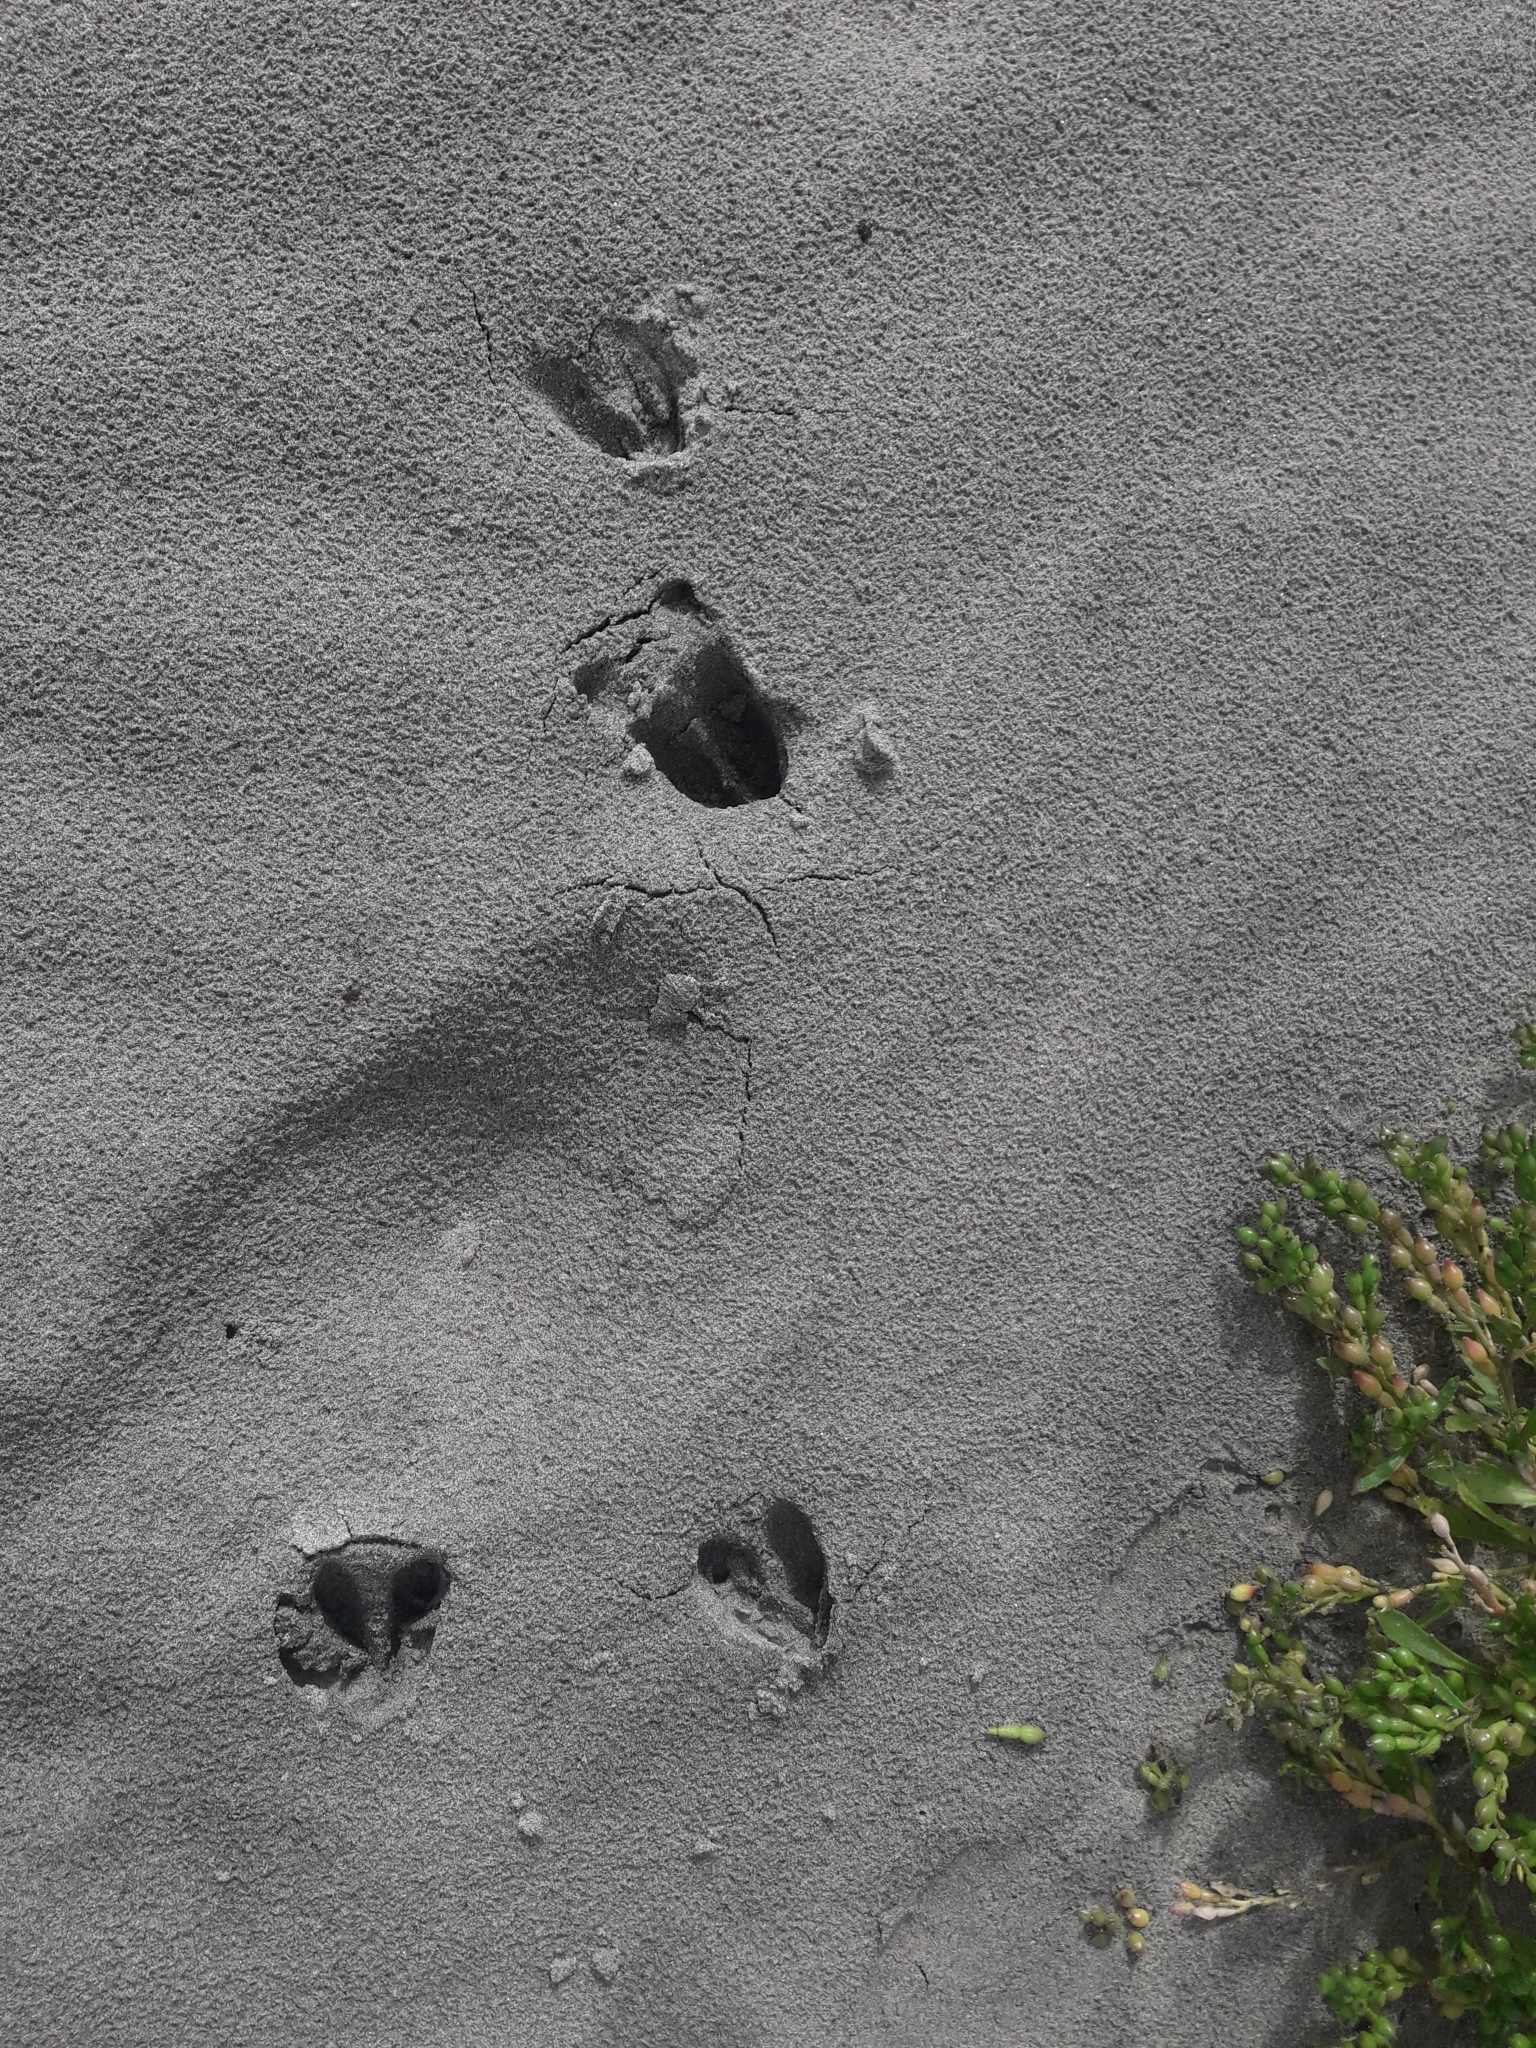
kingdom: Animalia
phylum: Chordata
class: Mammalia
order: Artiodactyla
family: Cervidae
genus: Odocoileus
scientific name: Odocoileus virginianus
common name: White-tailed deer
